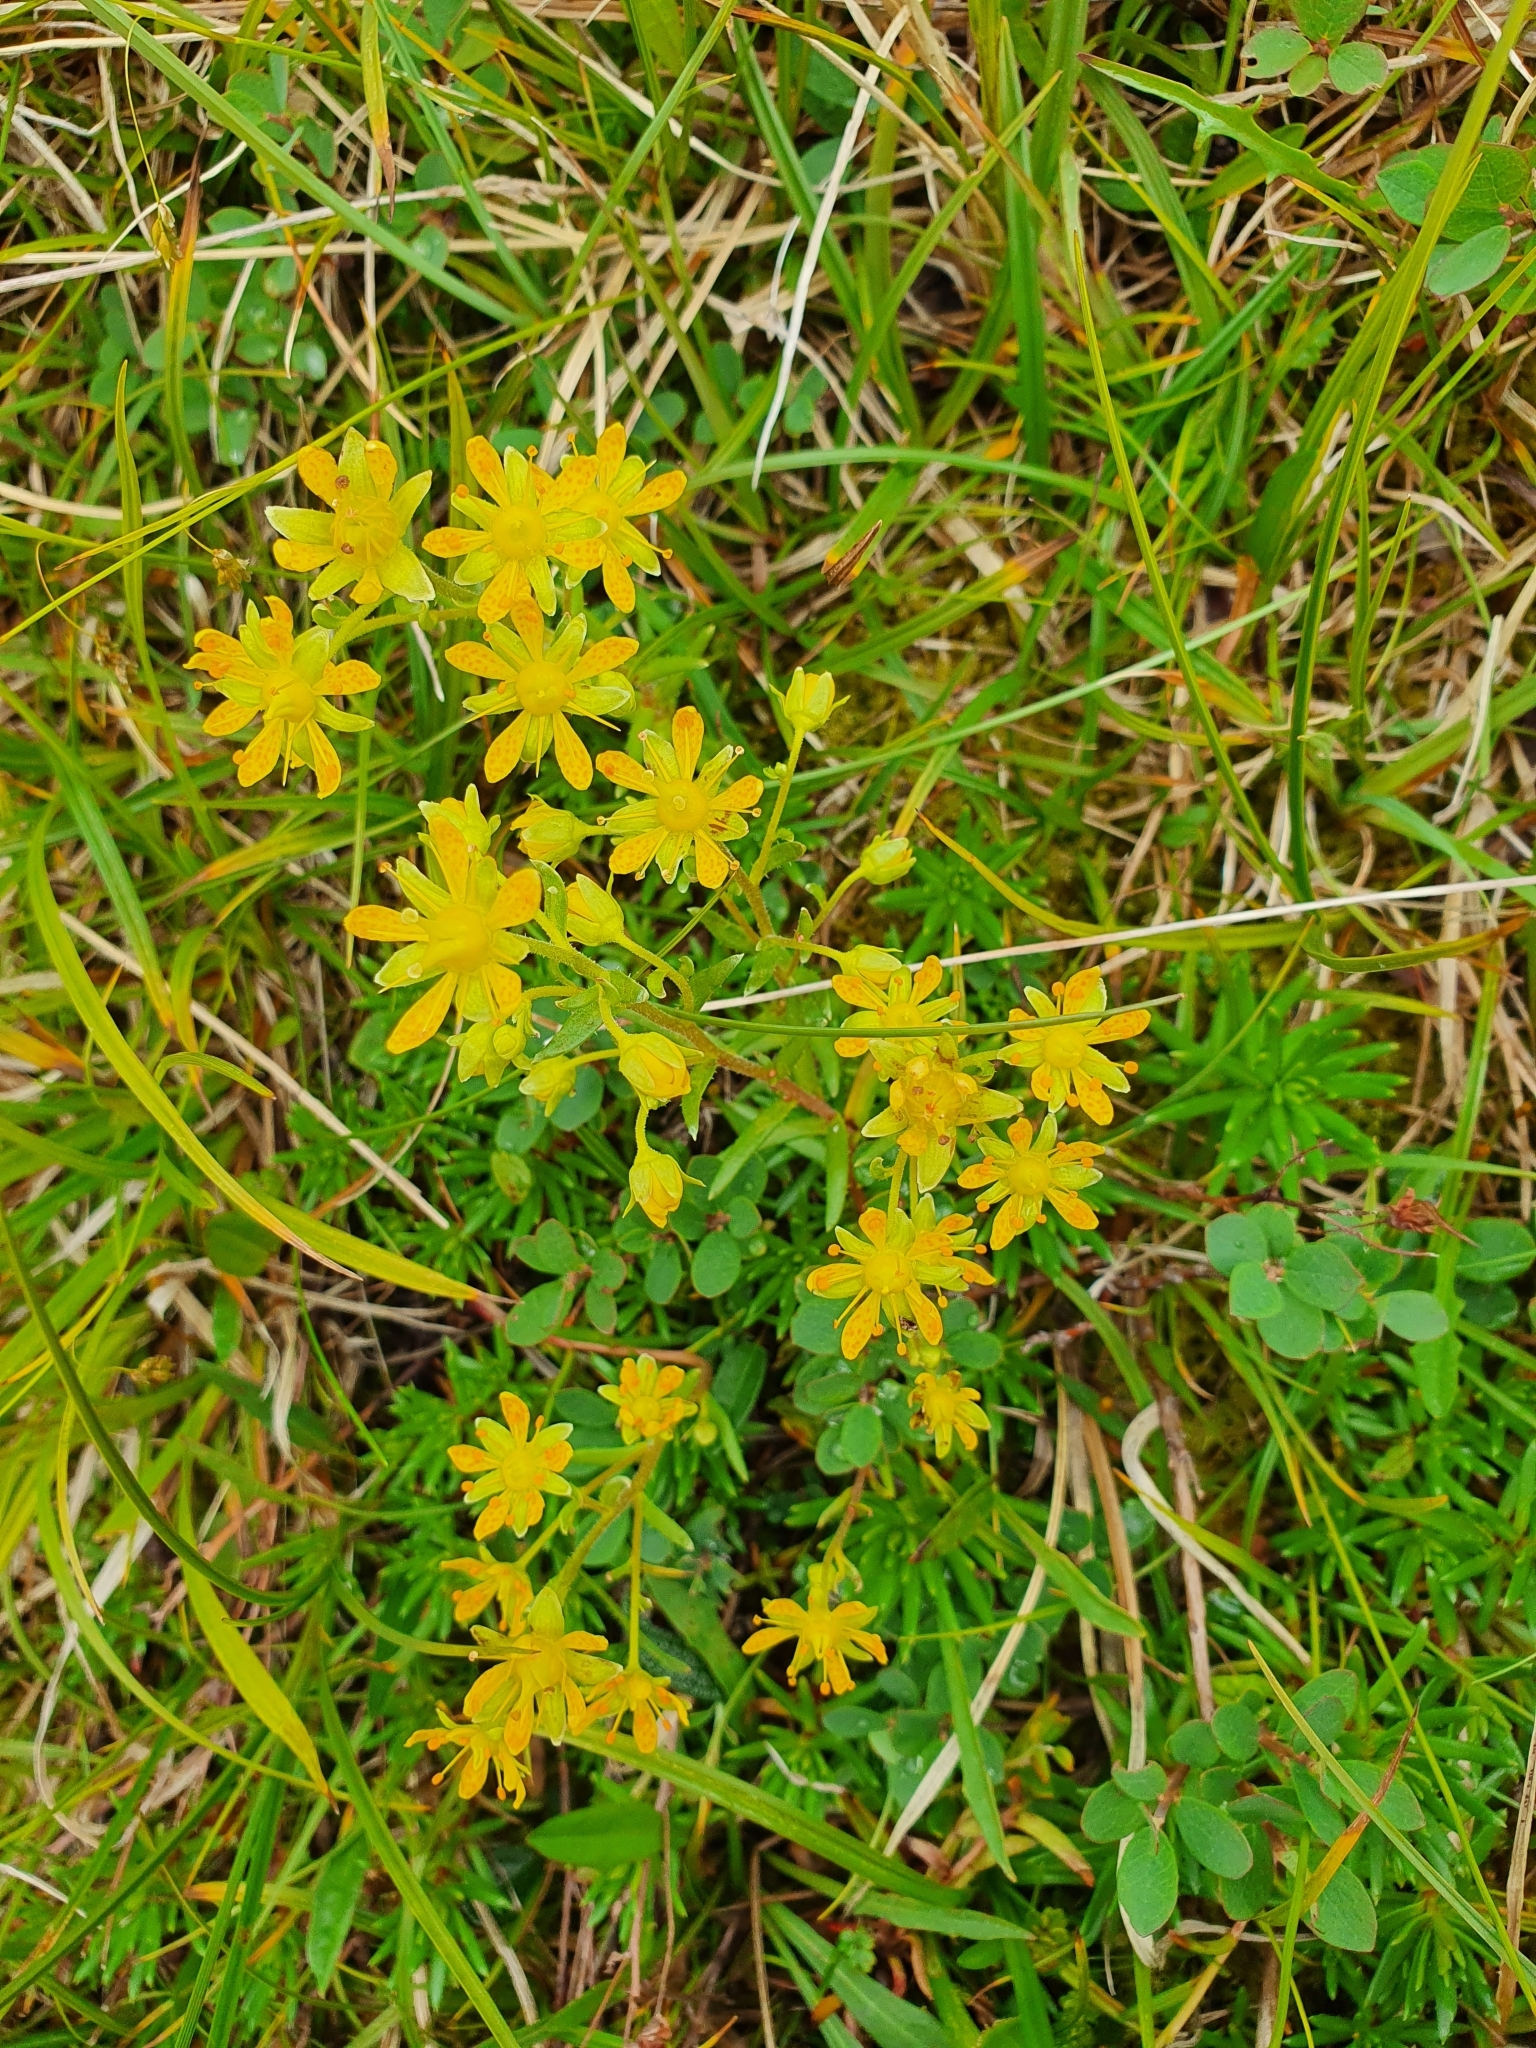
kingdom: Plantae
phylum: Tracheophyta
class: Magnoliopsida
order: Saxifragales
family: Saxifragaceae
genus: Saxifraga
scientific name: Saxifraga aizoides
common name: Yellow mountain saxifrage
